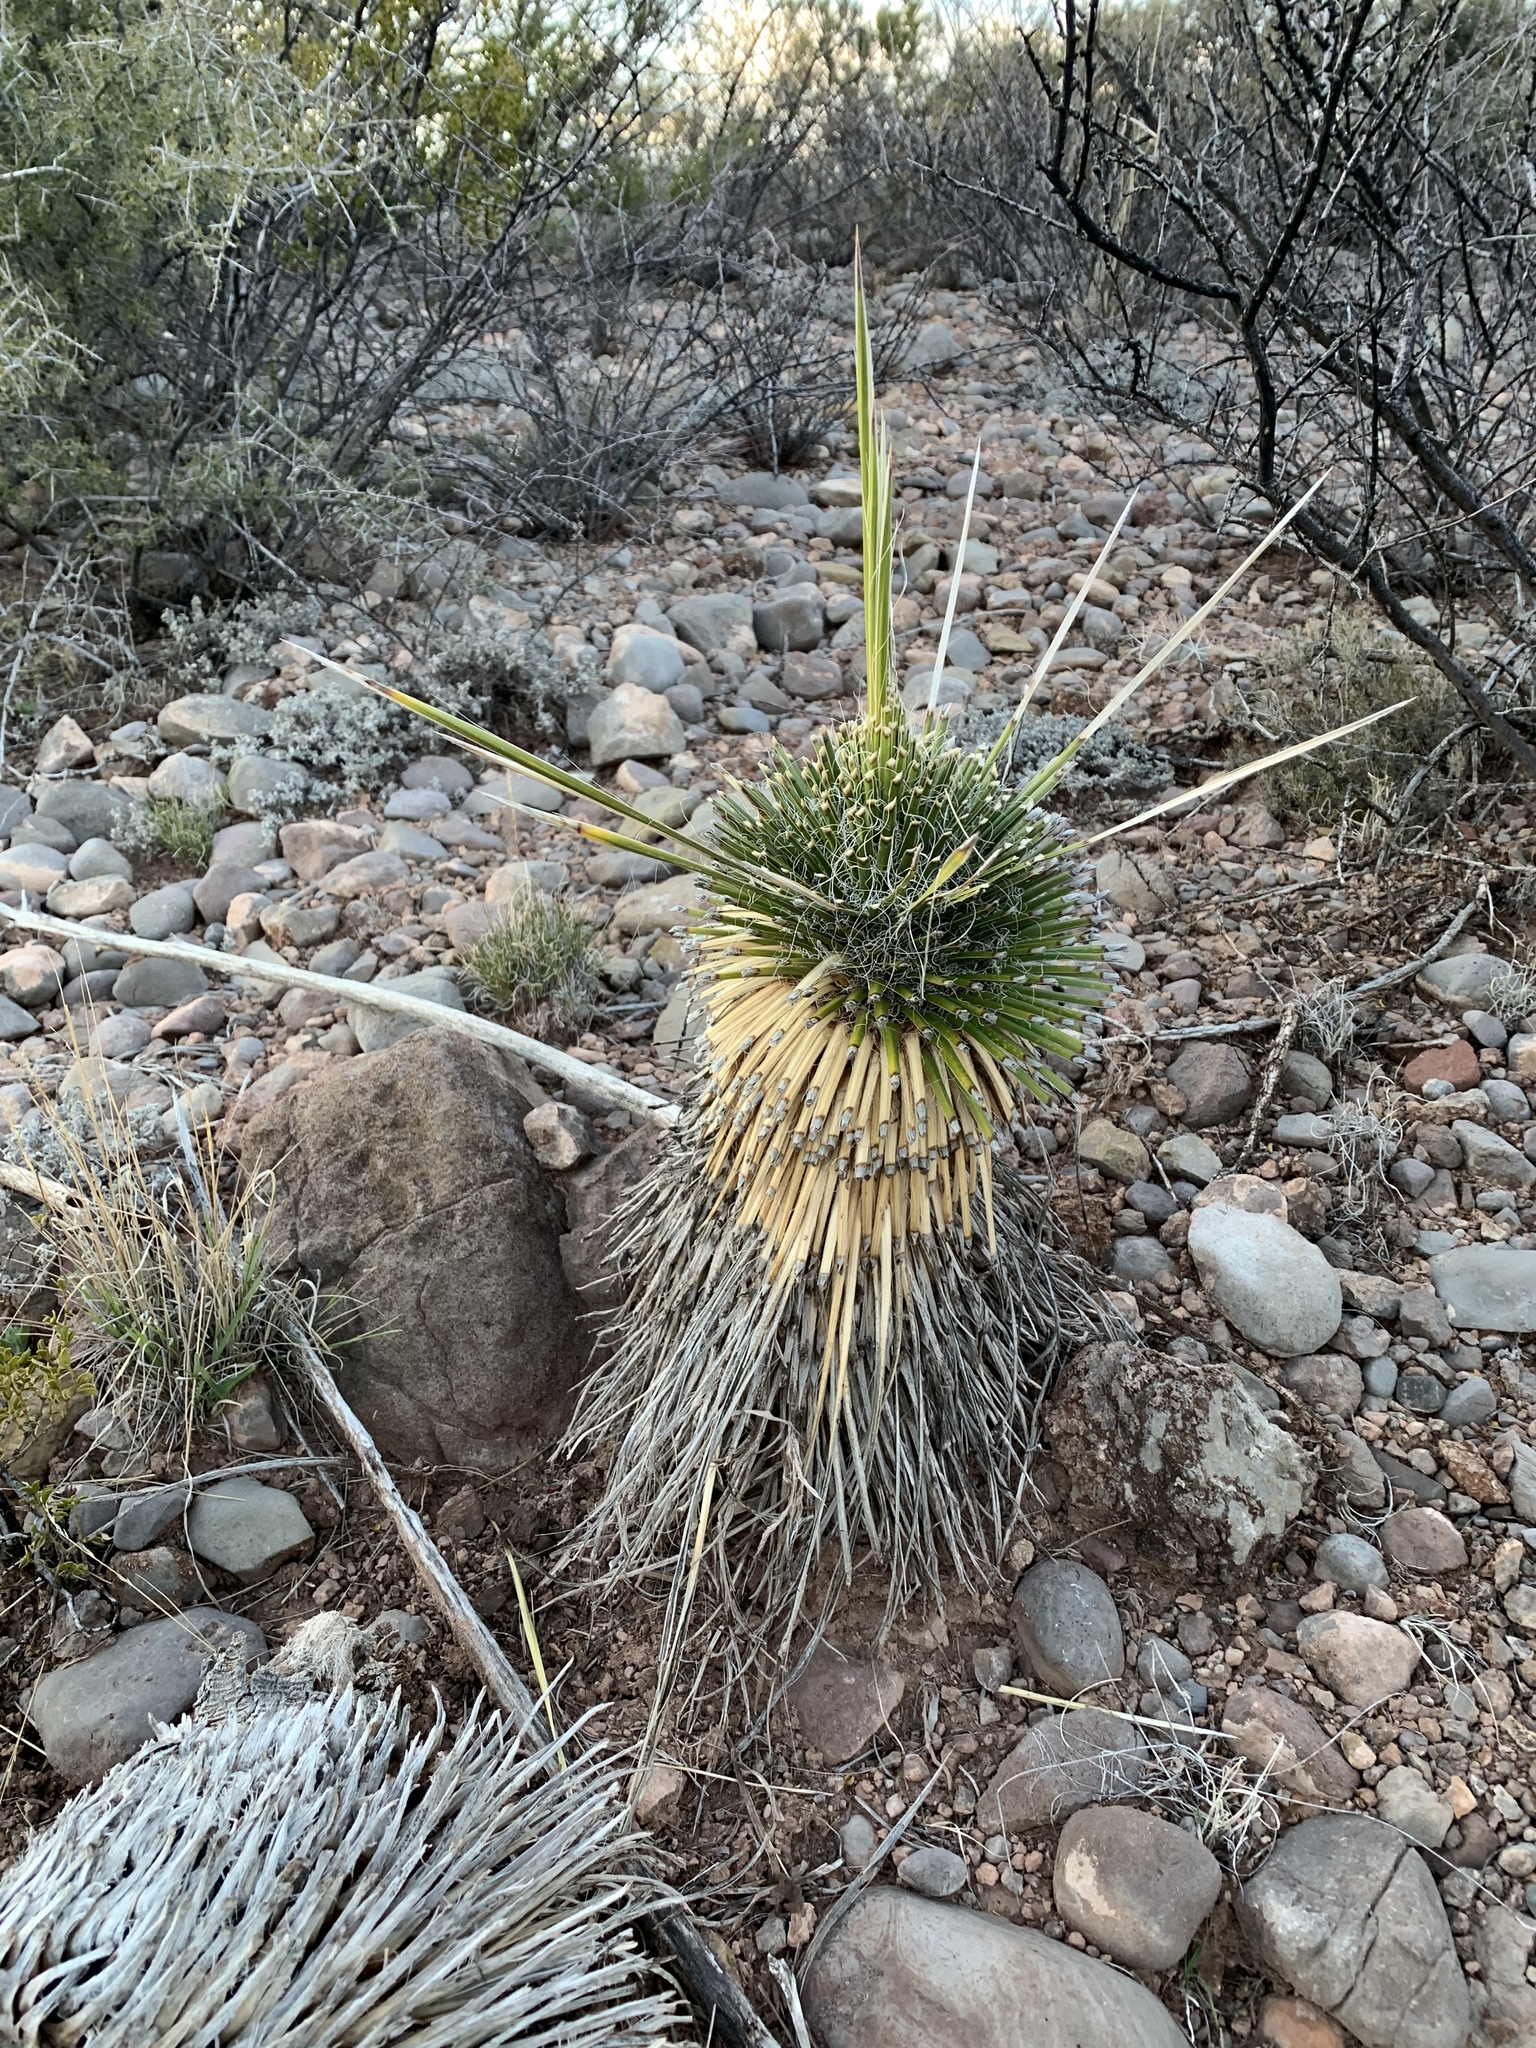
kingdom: Plantae
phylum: Tracheophyta
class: Liliopsida
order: Asparagales
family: Asparagaceae
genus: Yucca
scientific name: Yucca elata
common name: Palmella
